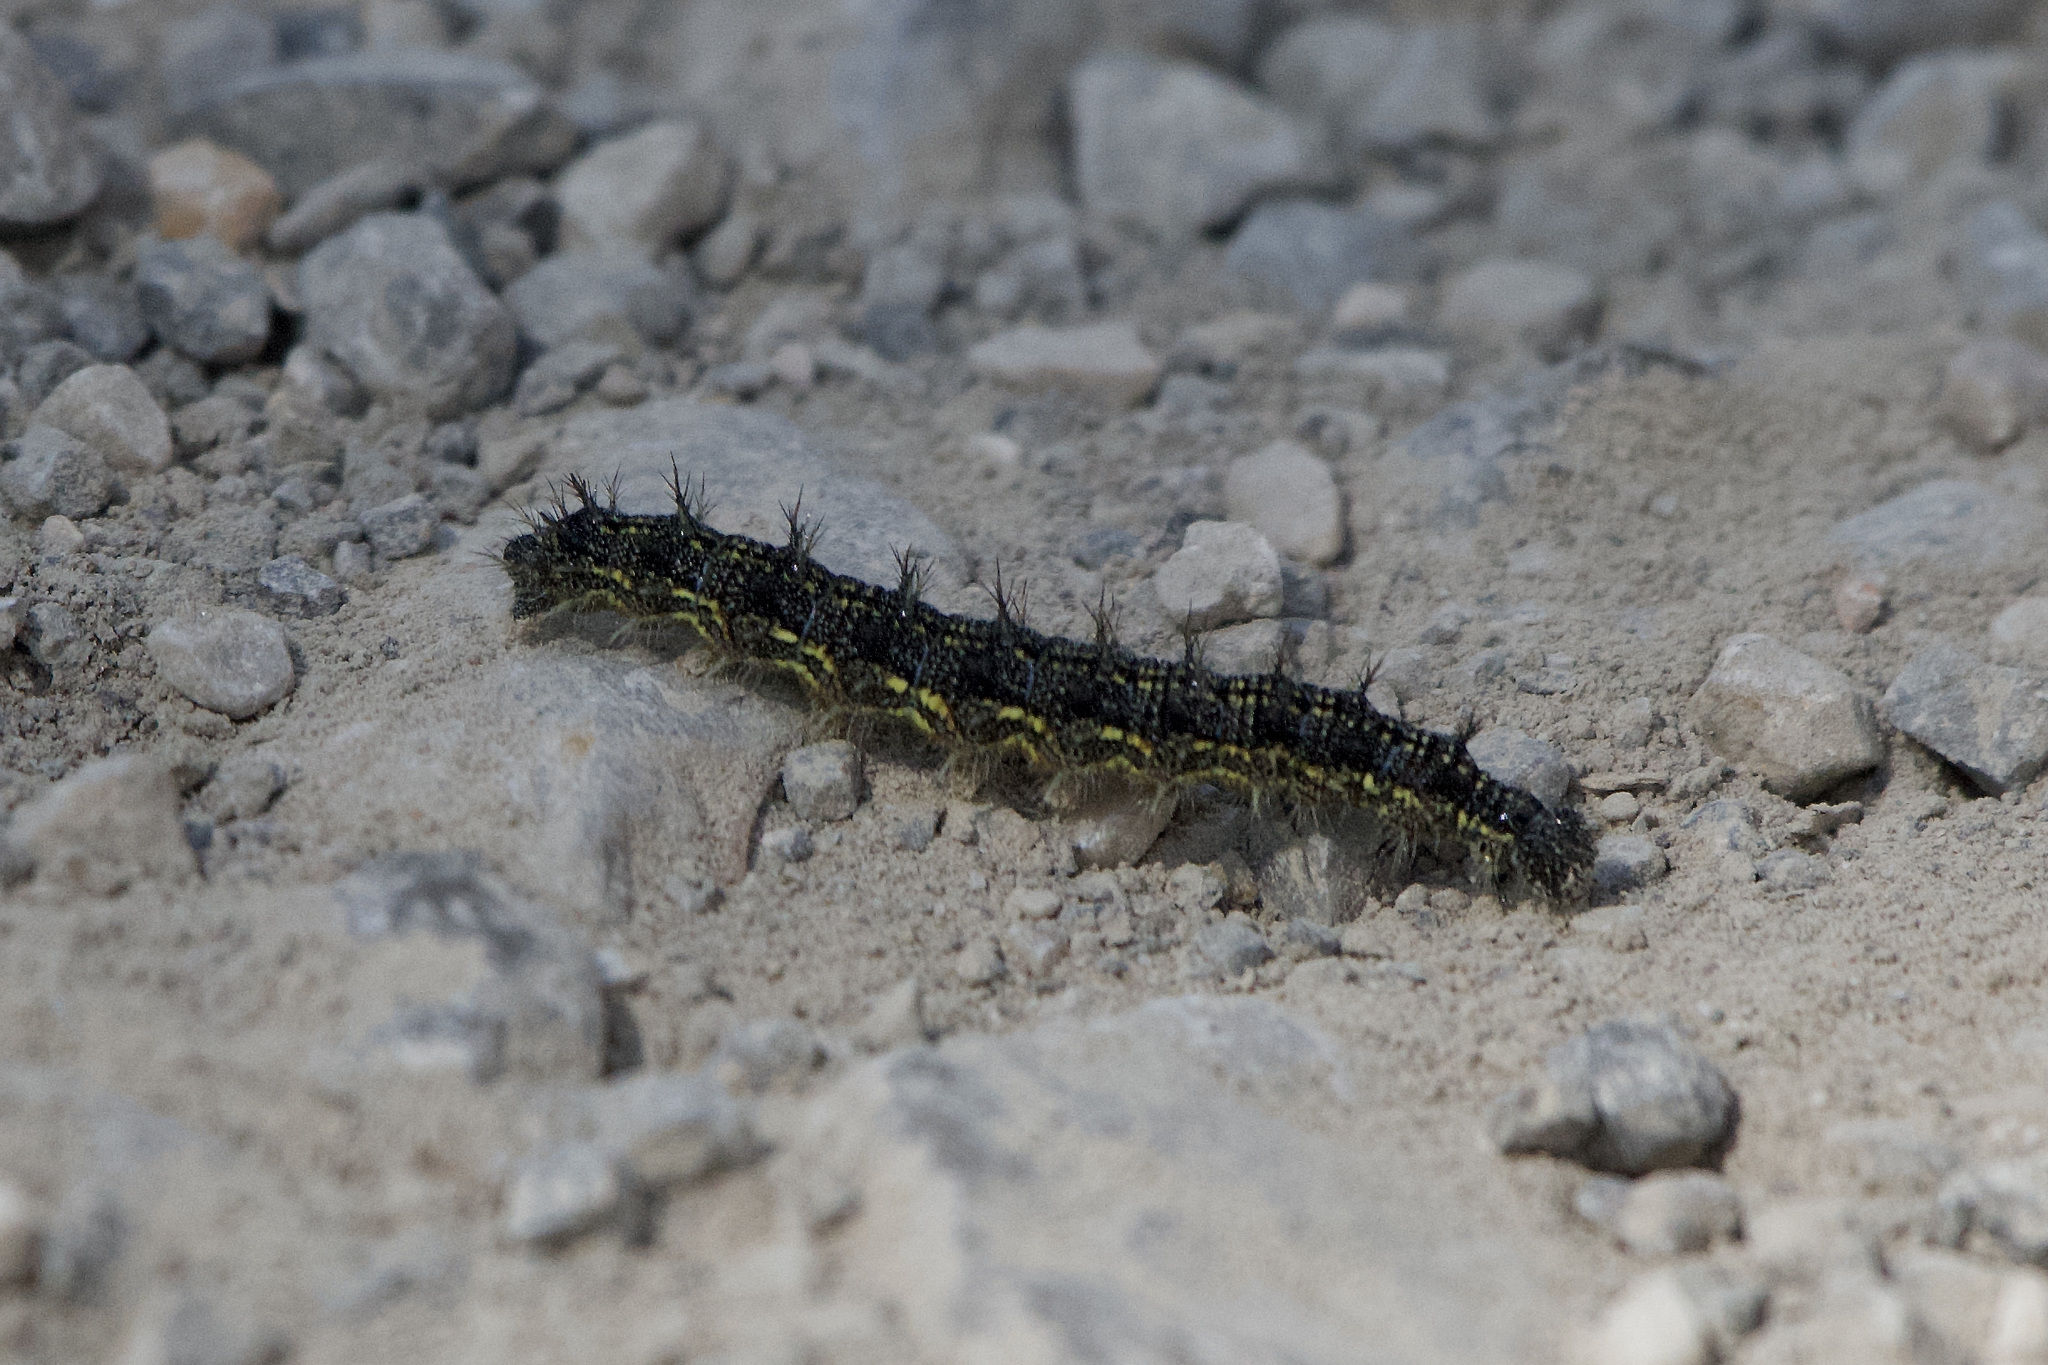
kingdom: Animalia
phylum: Arthropoda
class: Insecta
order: Lepidoptera
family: Nymphalidae
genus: Aglais
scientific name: Aglais urticae
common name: Small tortoiseshell
